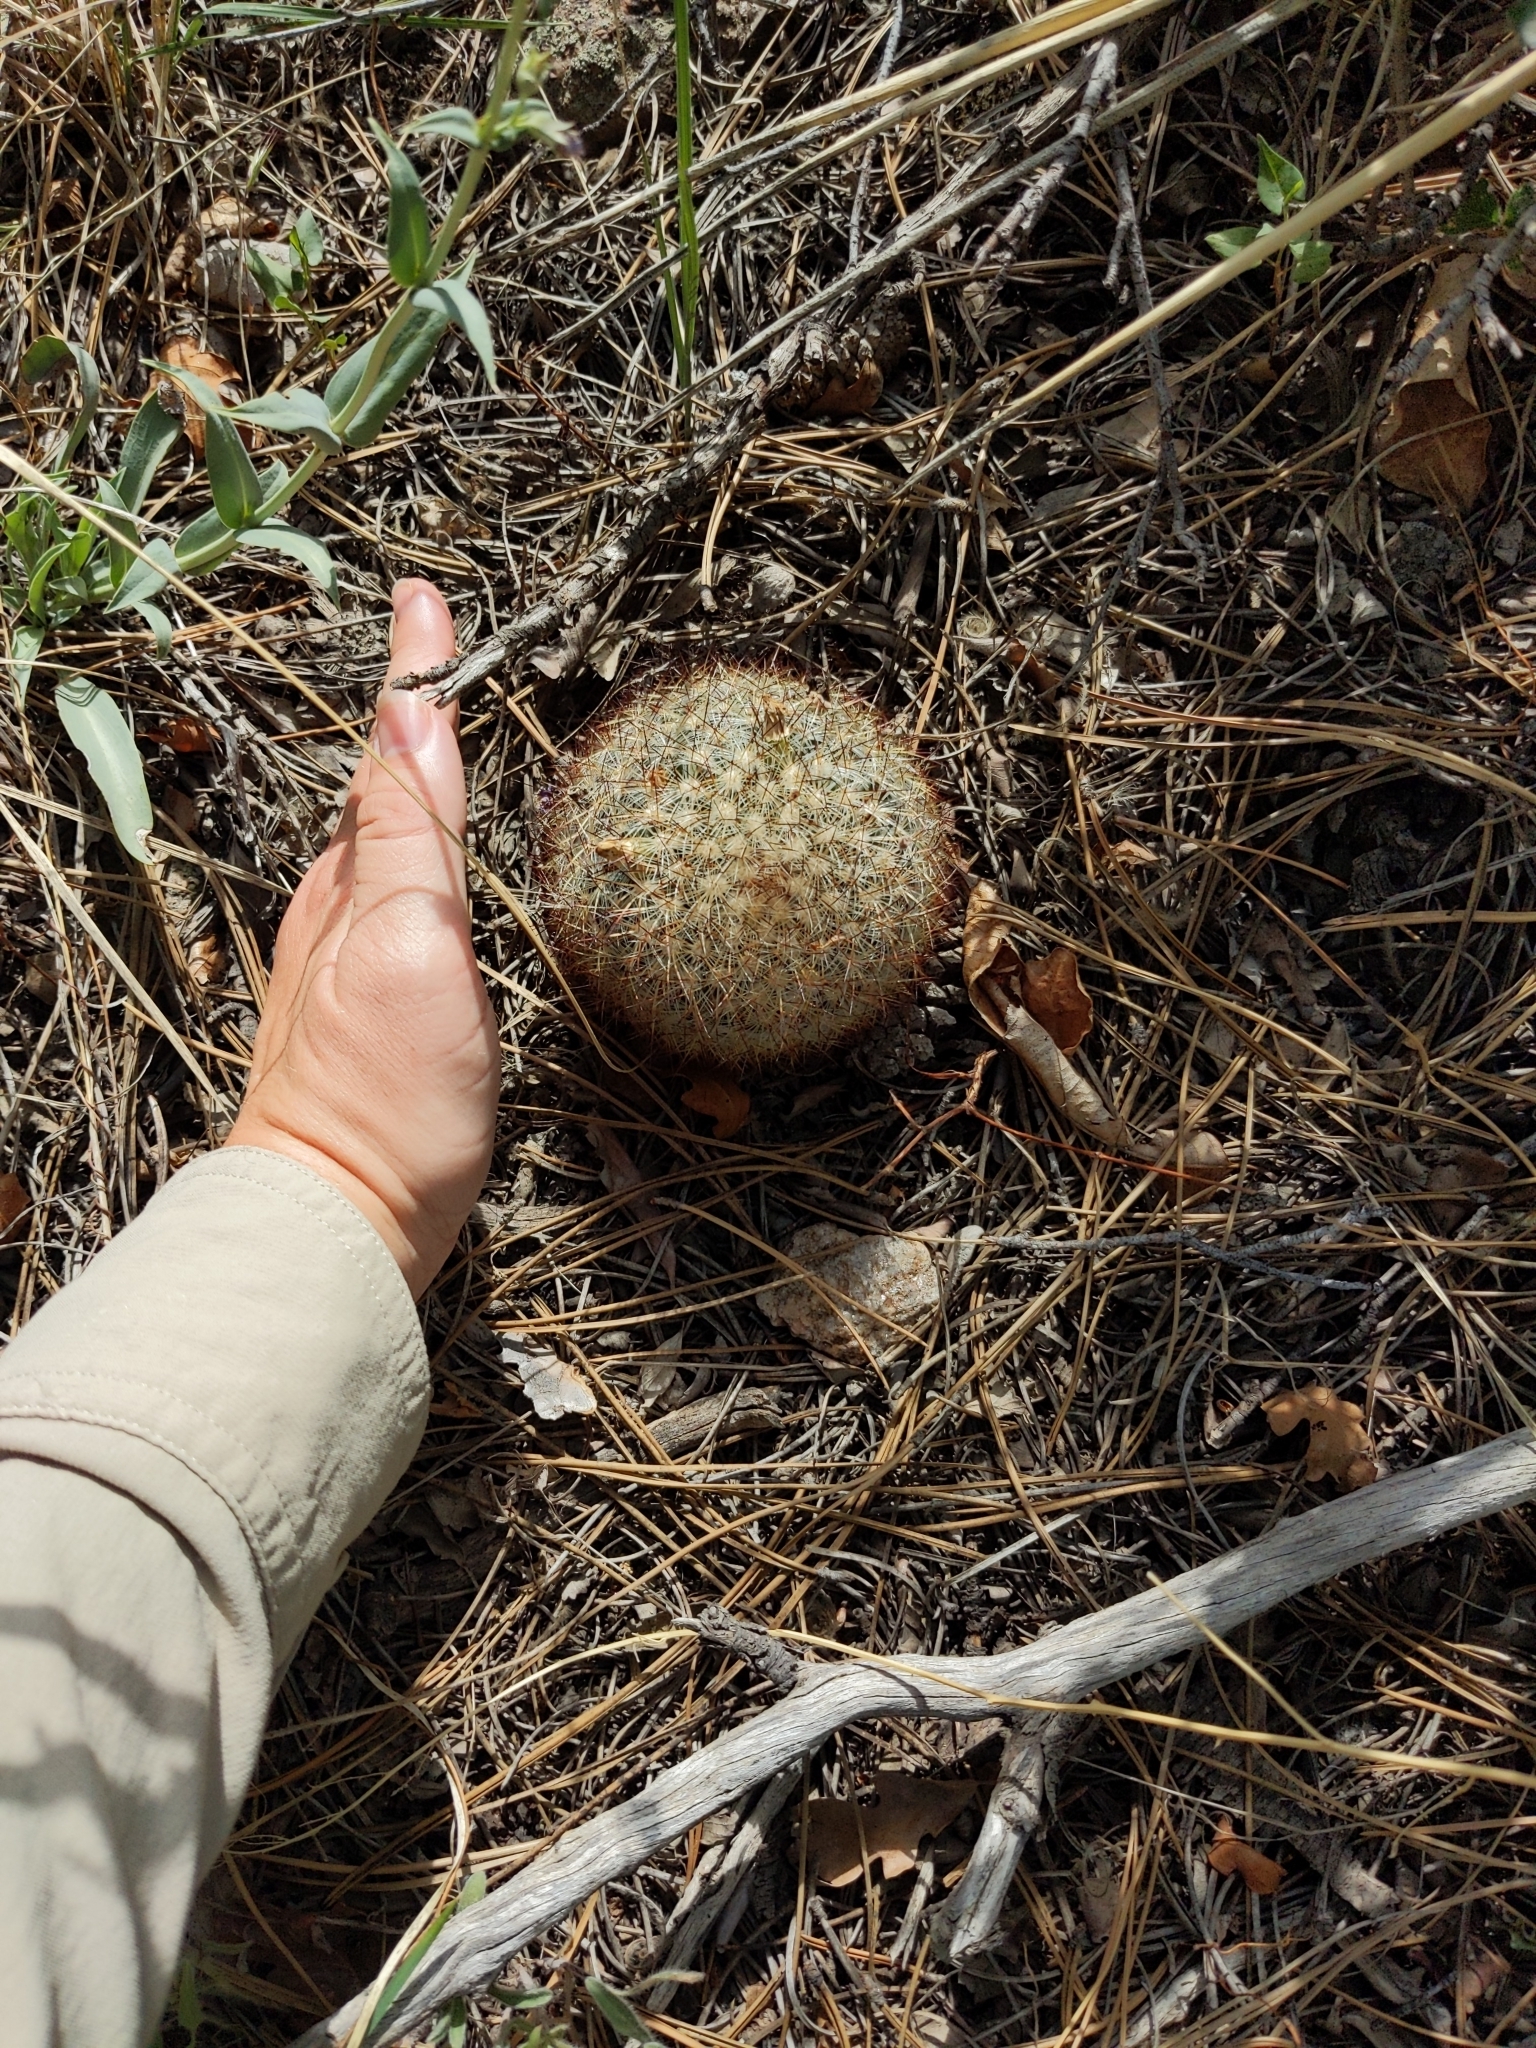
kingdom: Plantae
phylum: Tracheophyta
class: Magnoliopsida
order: Caryophyllales
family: Cactaceae
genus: Pediocactus
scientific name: Pediocactus simpsonii
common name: Simpson's hedgehog cactus
